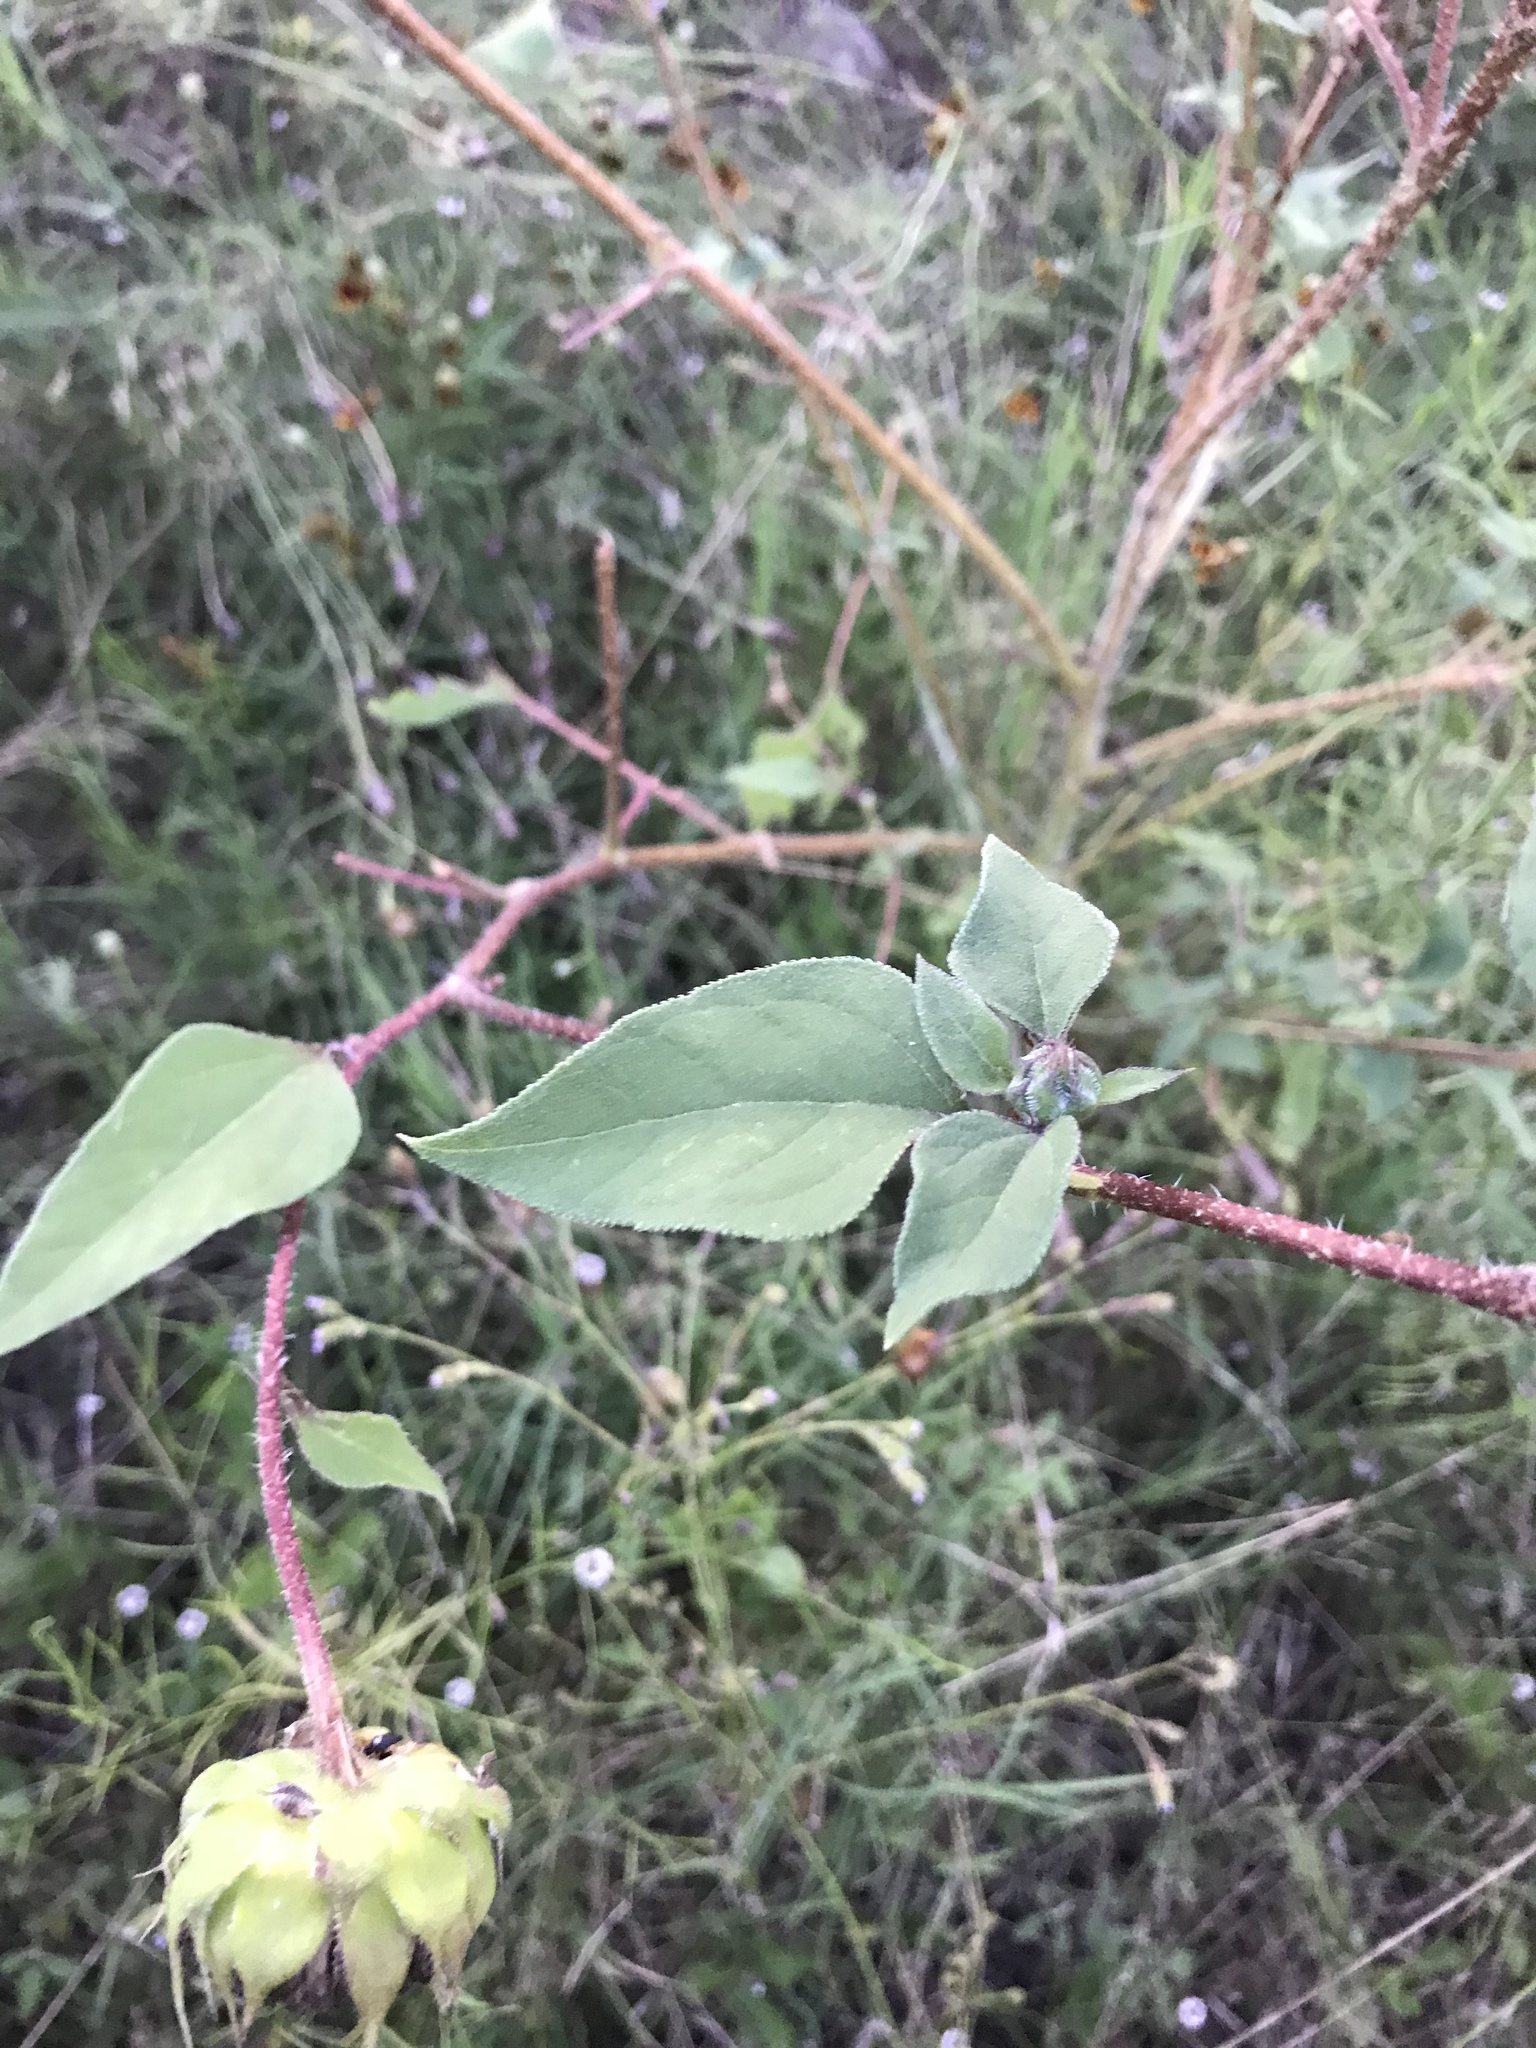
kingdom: Plantae
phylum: Tracheophyta
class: Magnoliopsida
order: Asterales
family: Asteraceae
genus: Helianthus
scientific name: Helianthus annuus
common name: Sunflower
